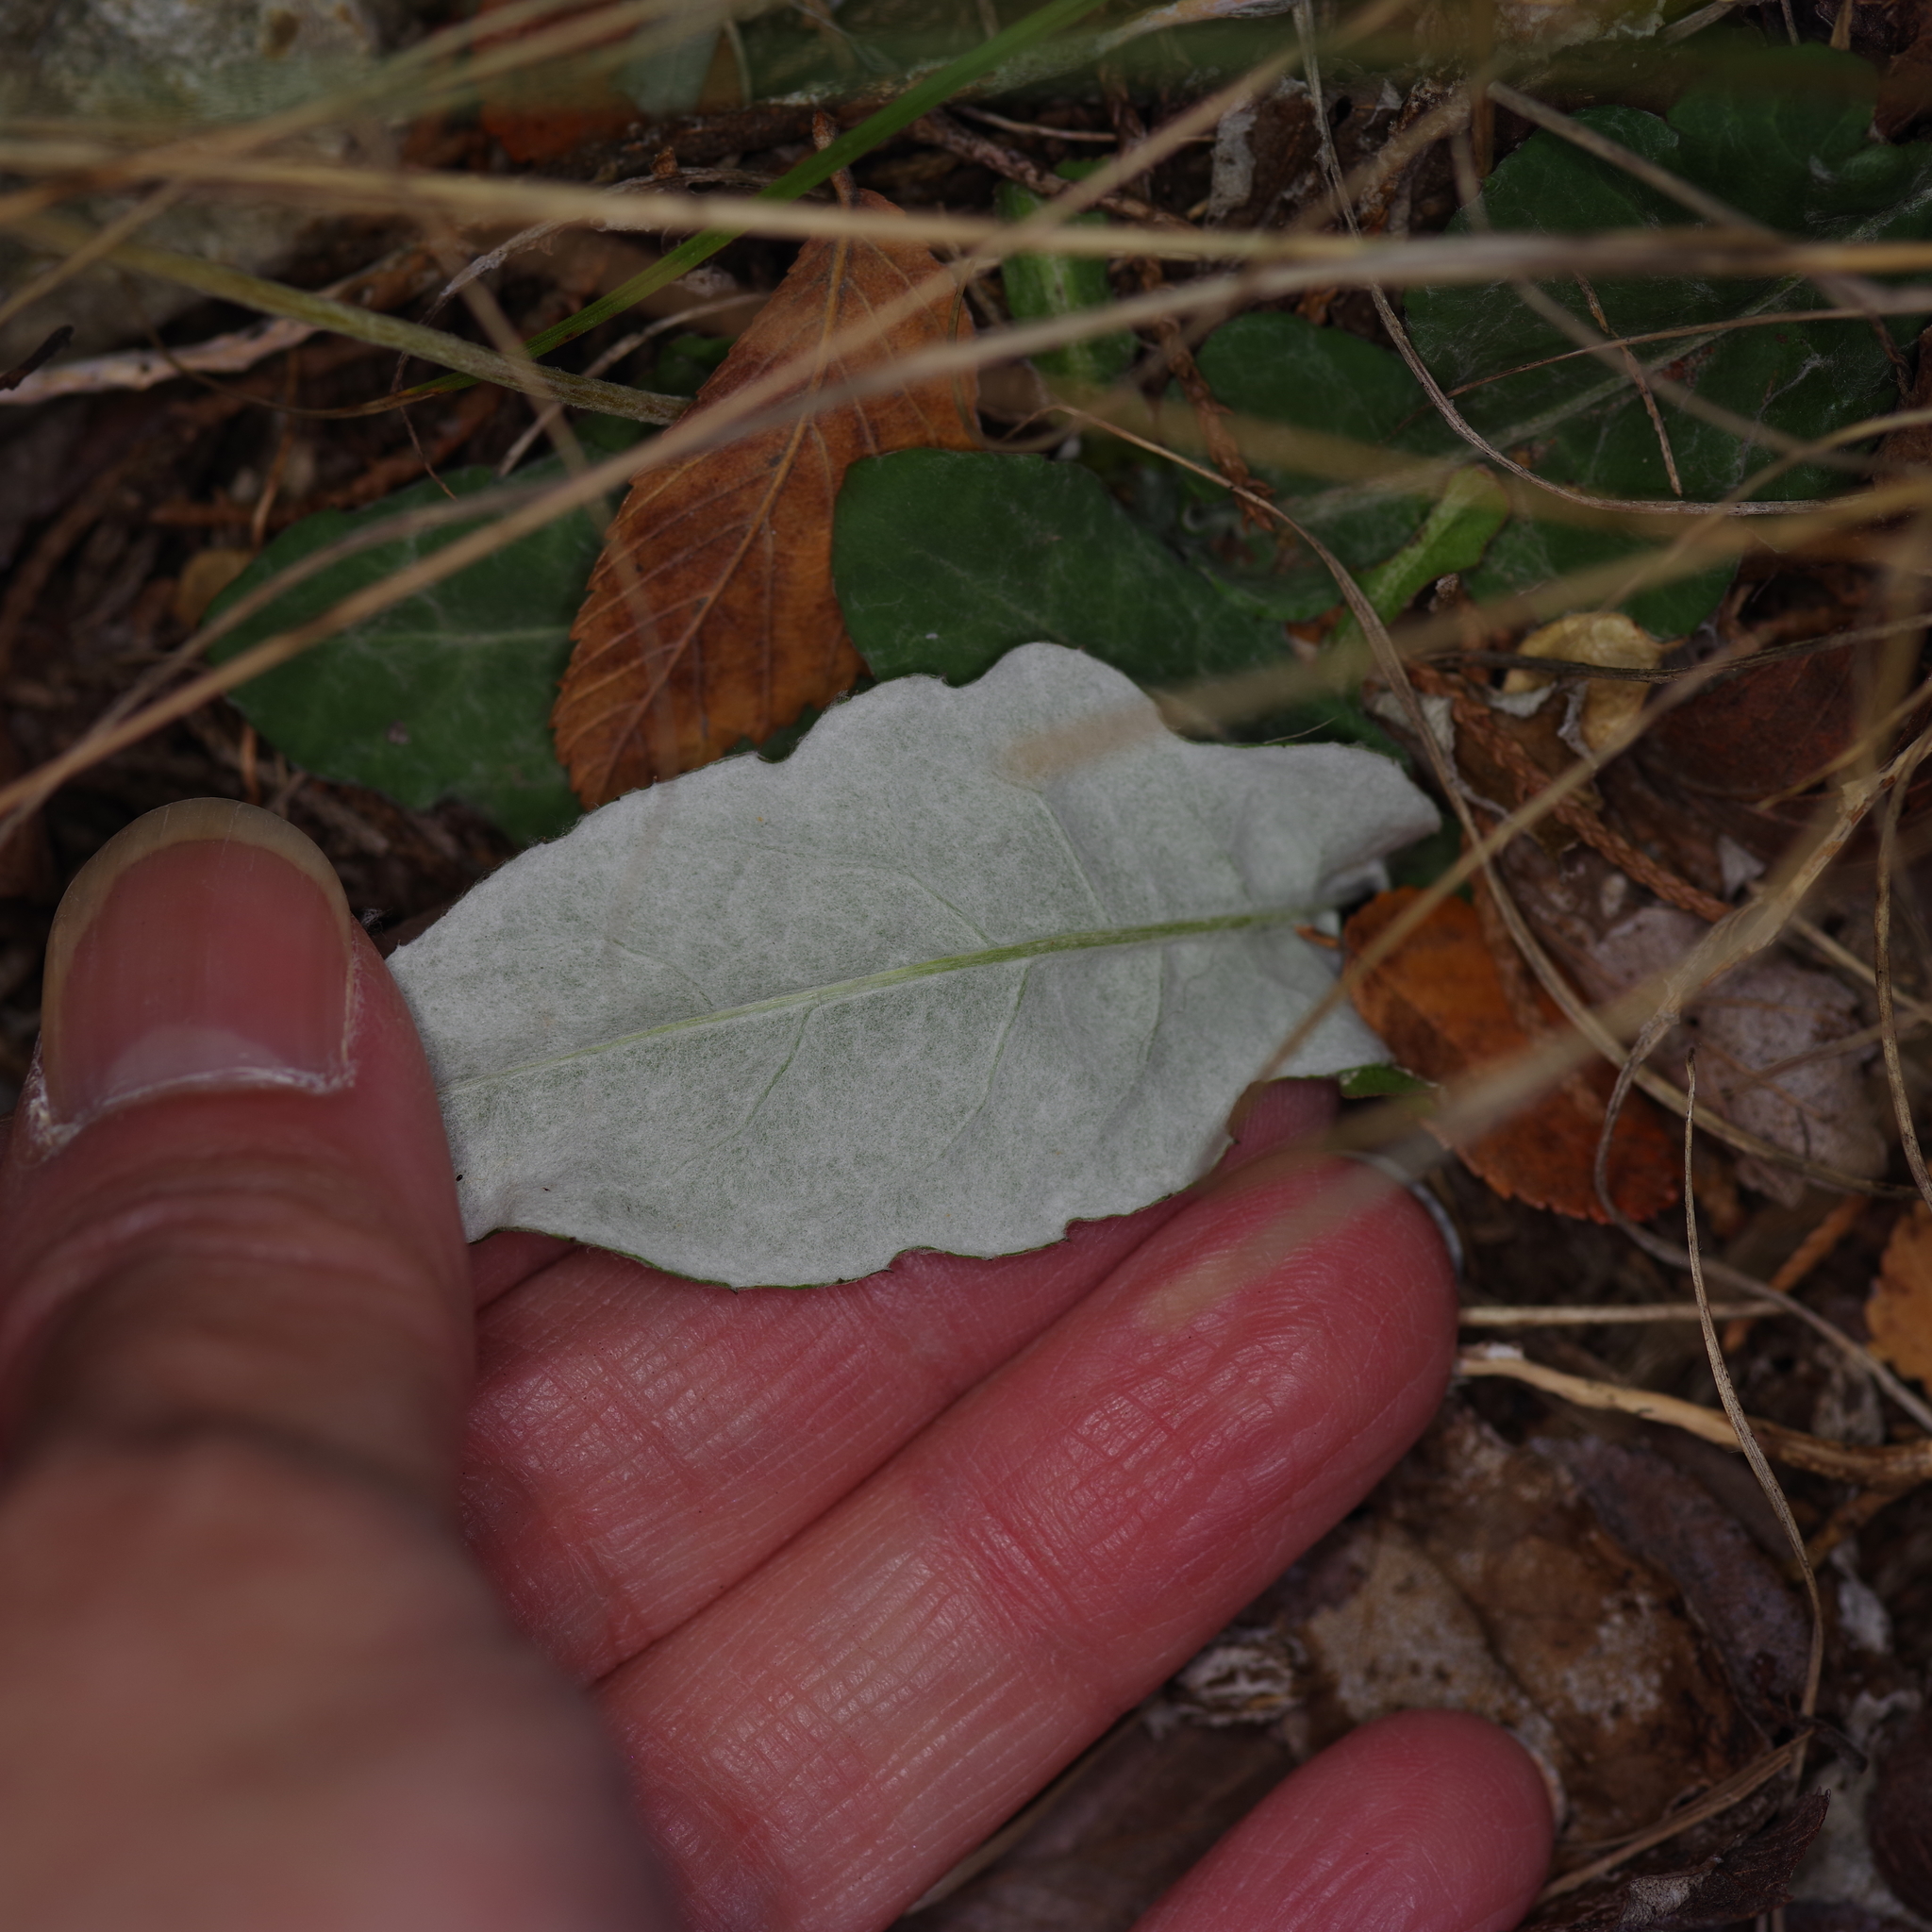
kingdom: Plantae
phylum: Tracheophyta
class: Magnoliopsida
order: Asterales
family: Asteraceae
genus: Chaptalia
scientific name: Chaptalia texana
